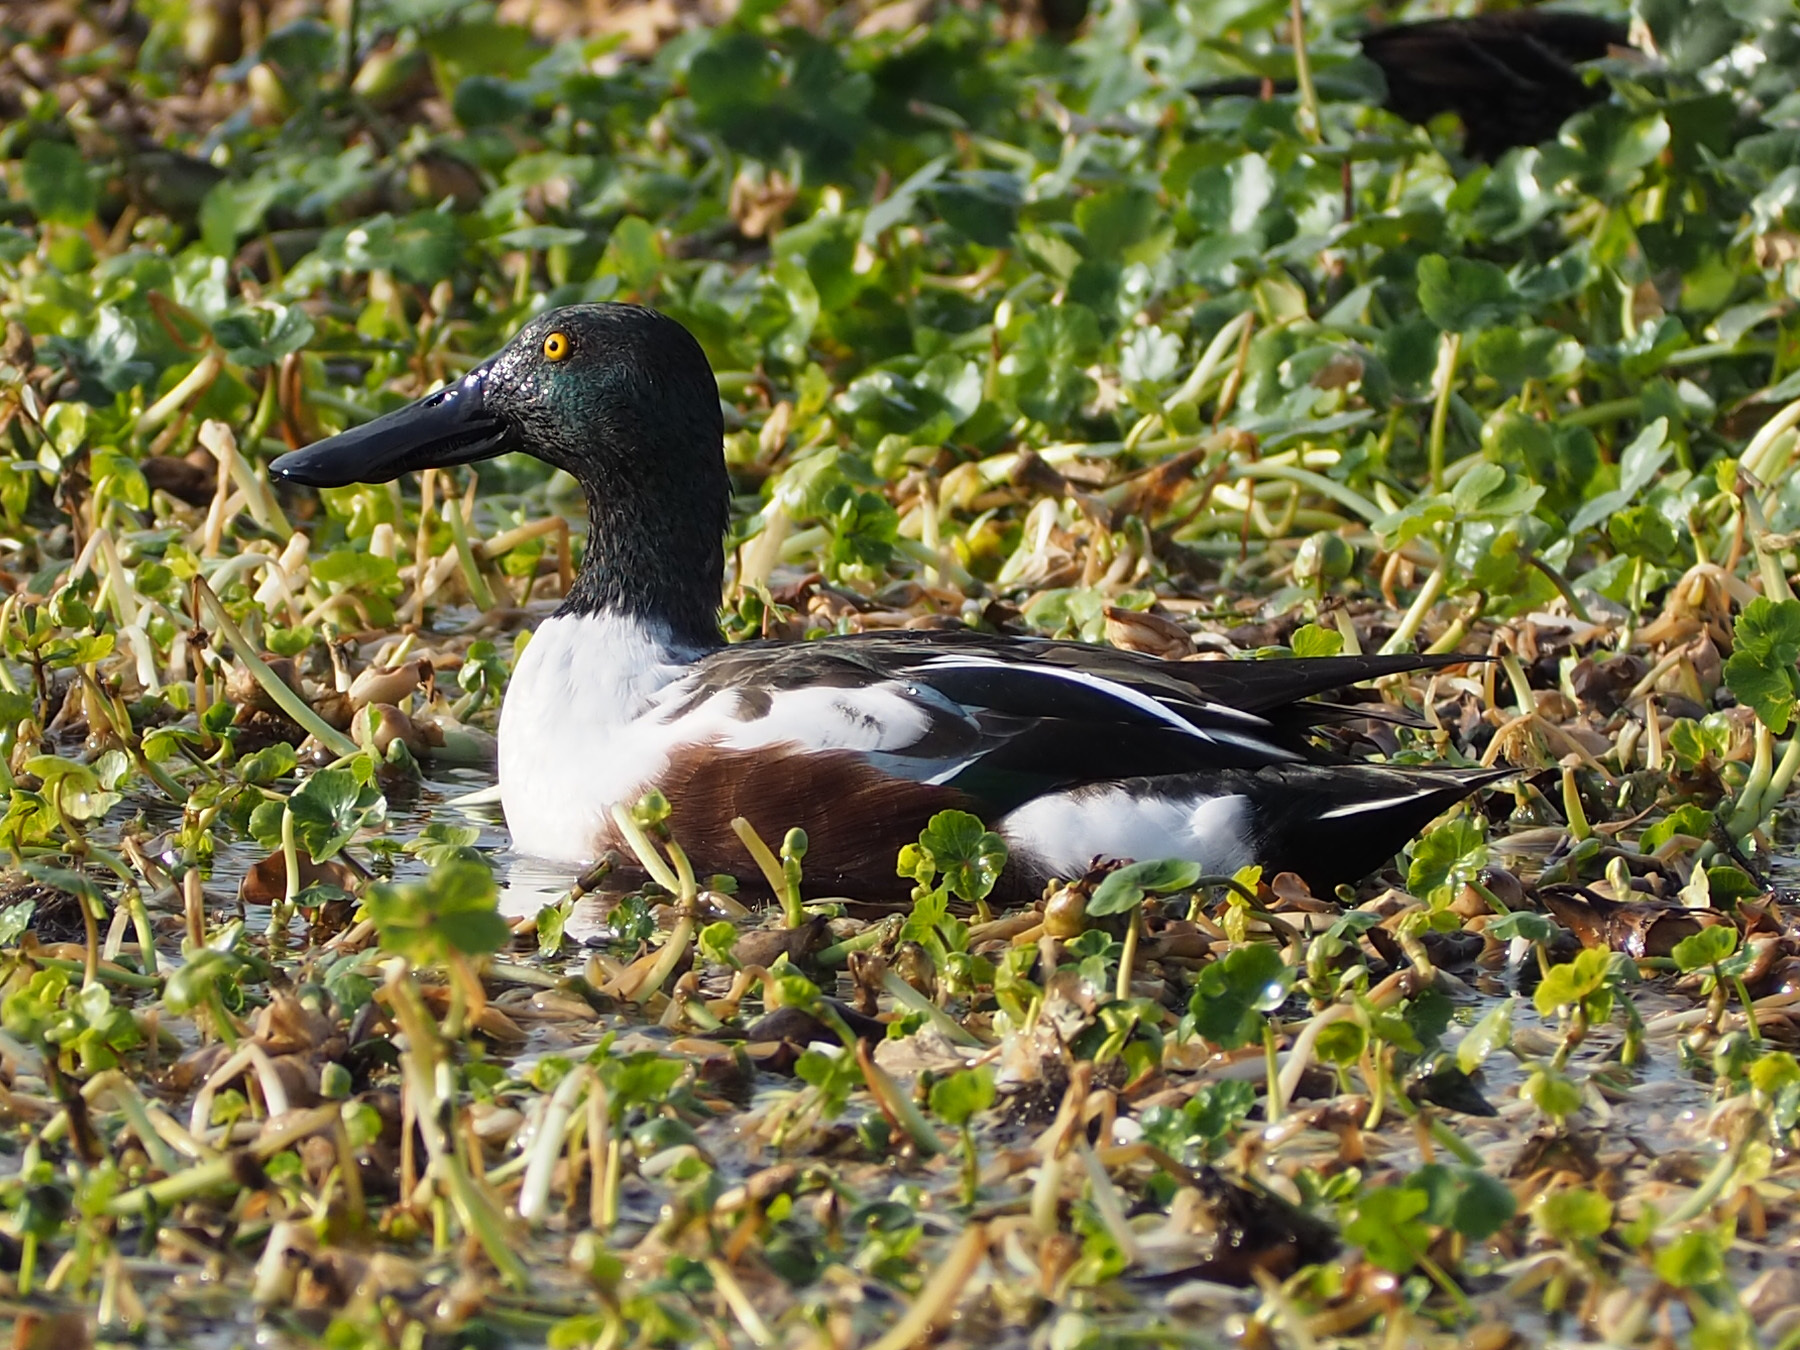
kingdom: Animalia
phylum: Chordata
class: Aves
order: Anseriformes
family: Anatidae
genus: Spatula
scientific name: Spatula clypeata
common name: Northern shoveler
